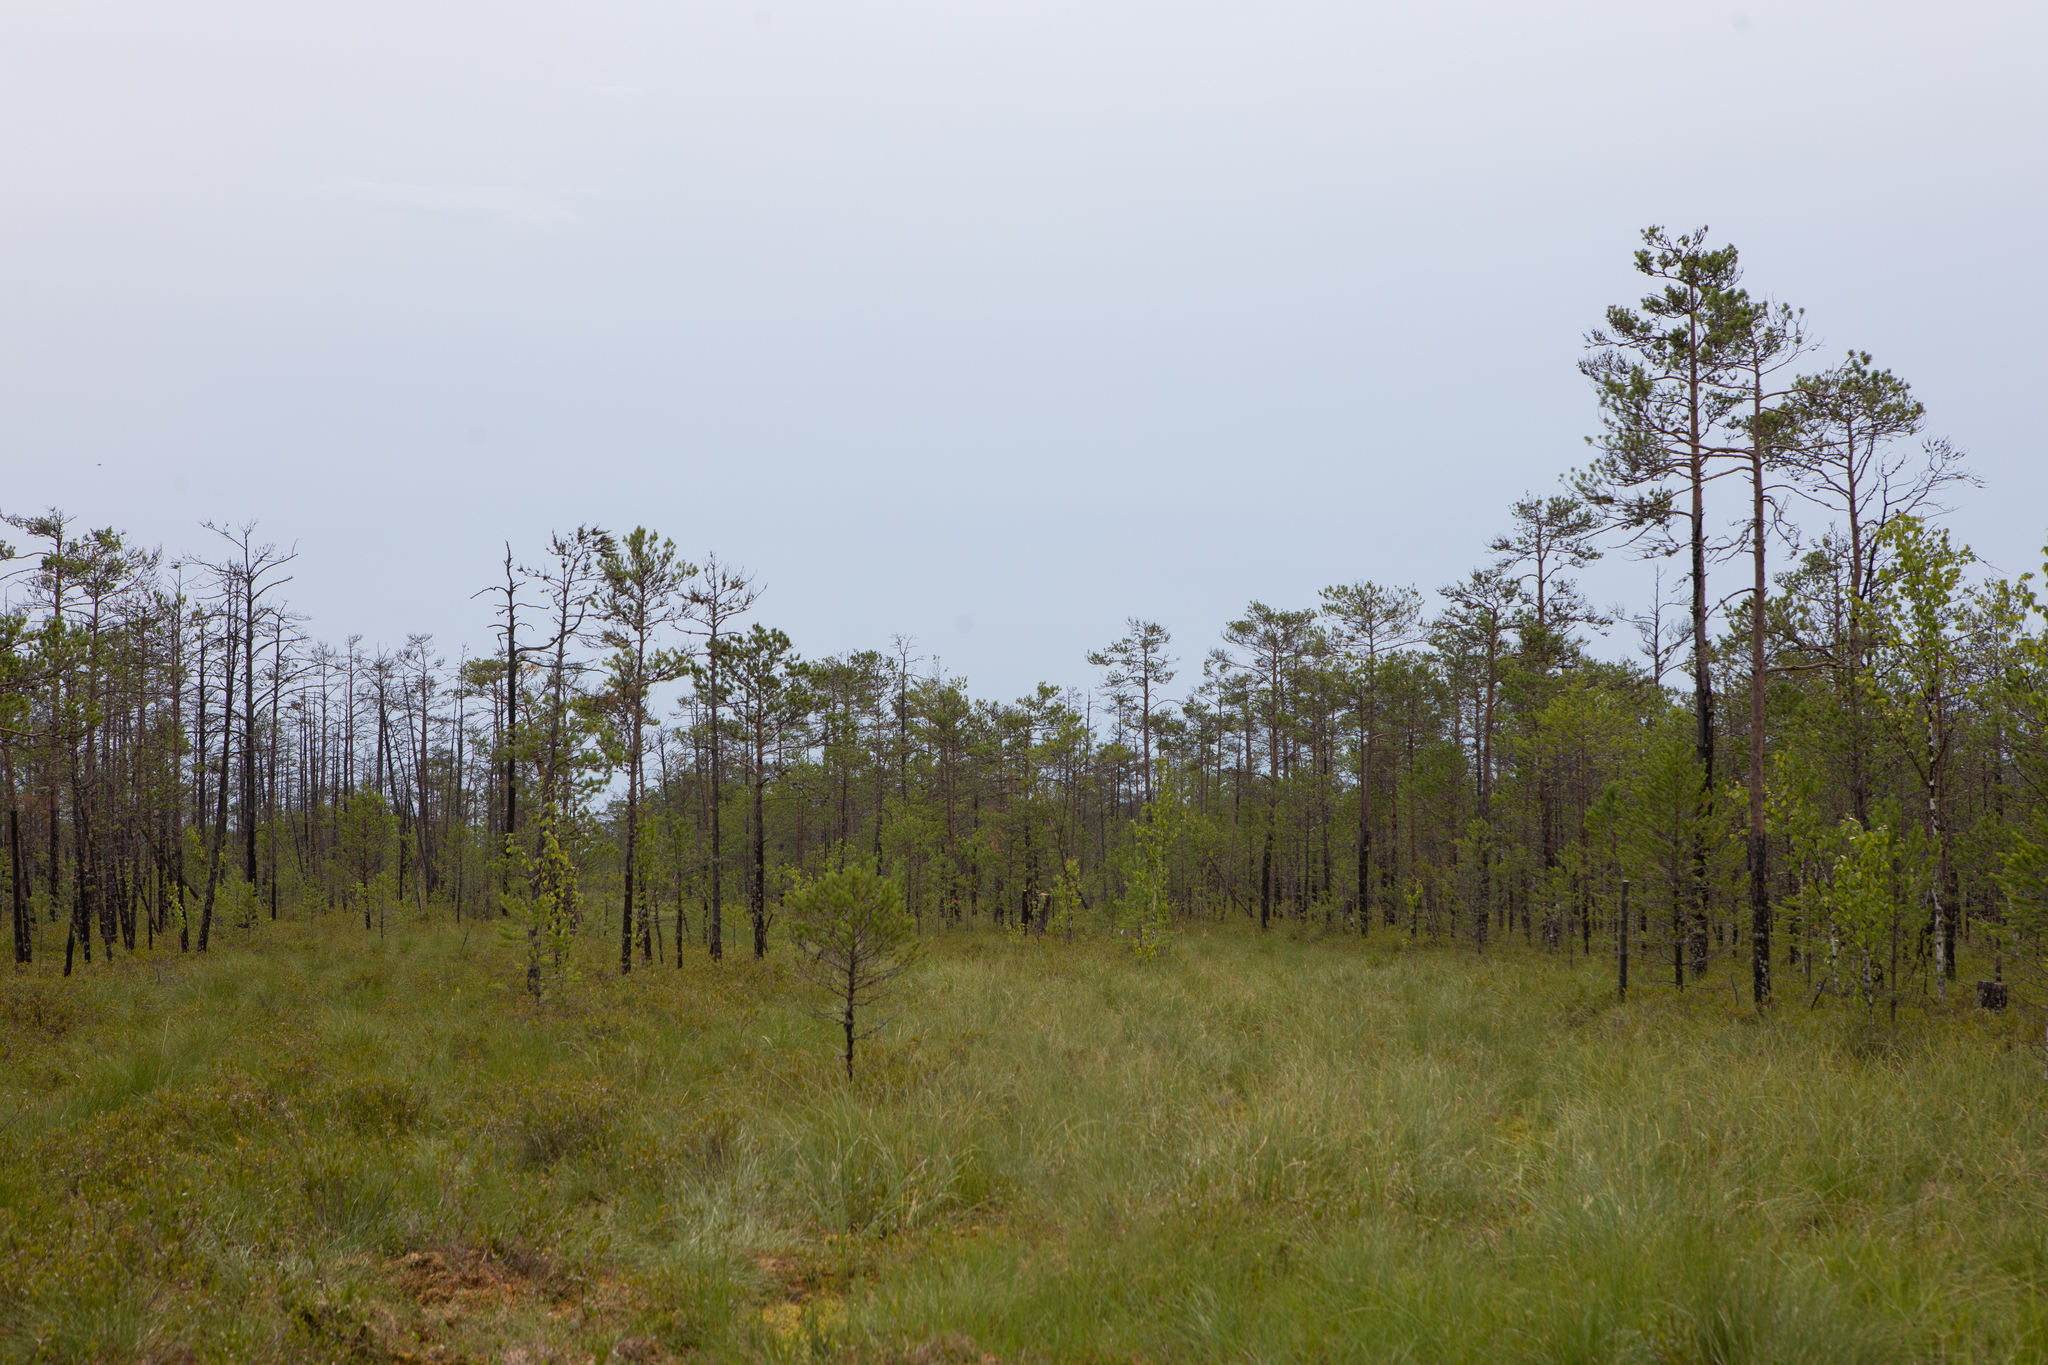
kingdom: Plantae
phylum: Tracheophyta
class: Pinopsida
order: Pinales
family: Pinaceae
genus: Pinus
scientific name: Pinus sylvestris
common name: Scots pine
